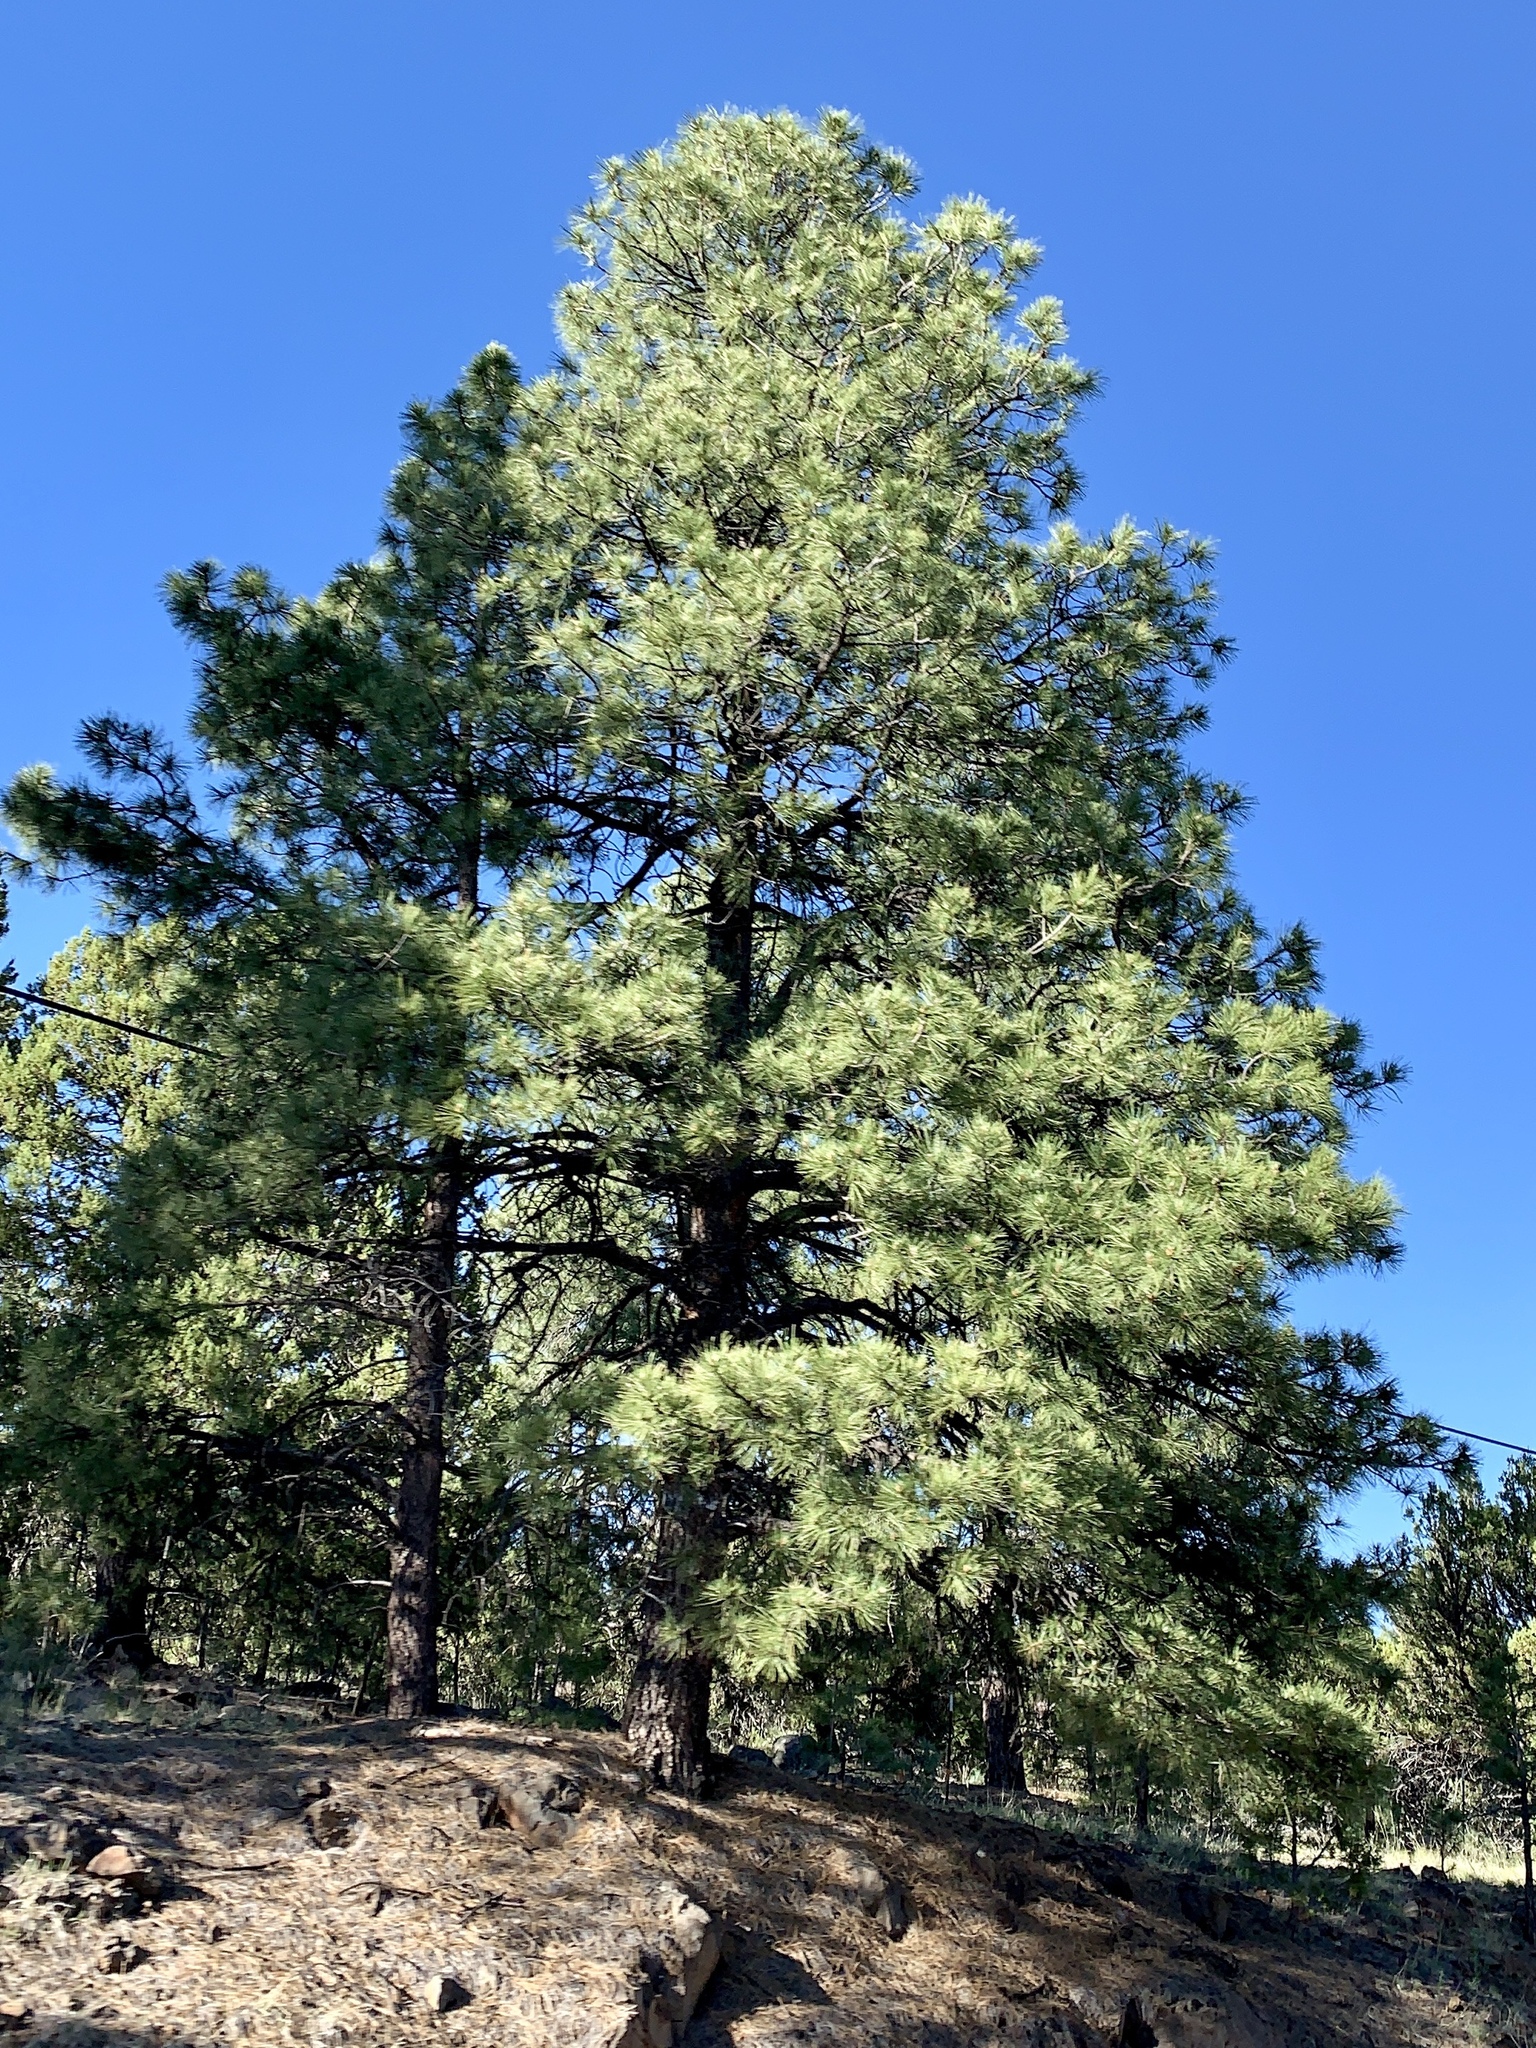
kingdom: Plantae
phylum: Tracheophyta
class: Pinopsida
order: Pinales
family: Pinaceae
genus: Pinus
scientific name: Pinus ponderosa
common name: Western yellow-pine
